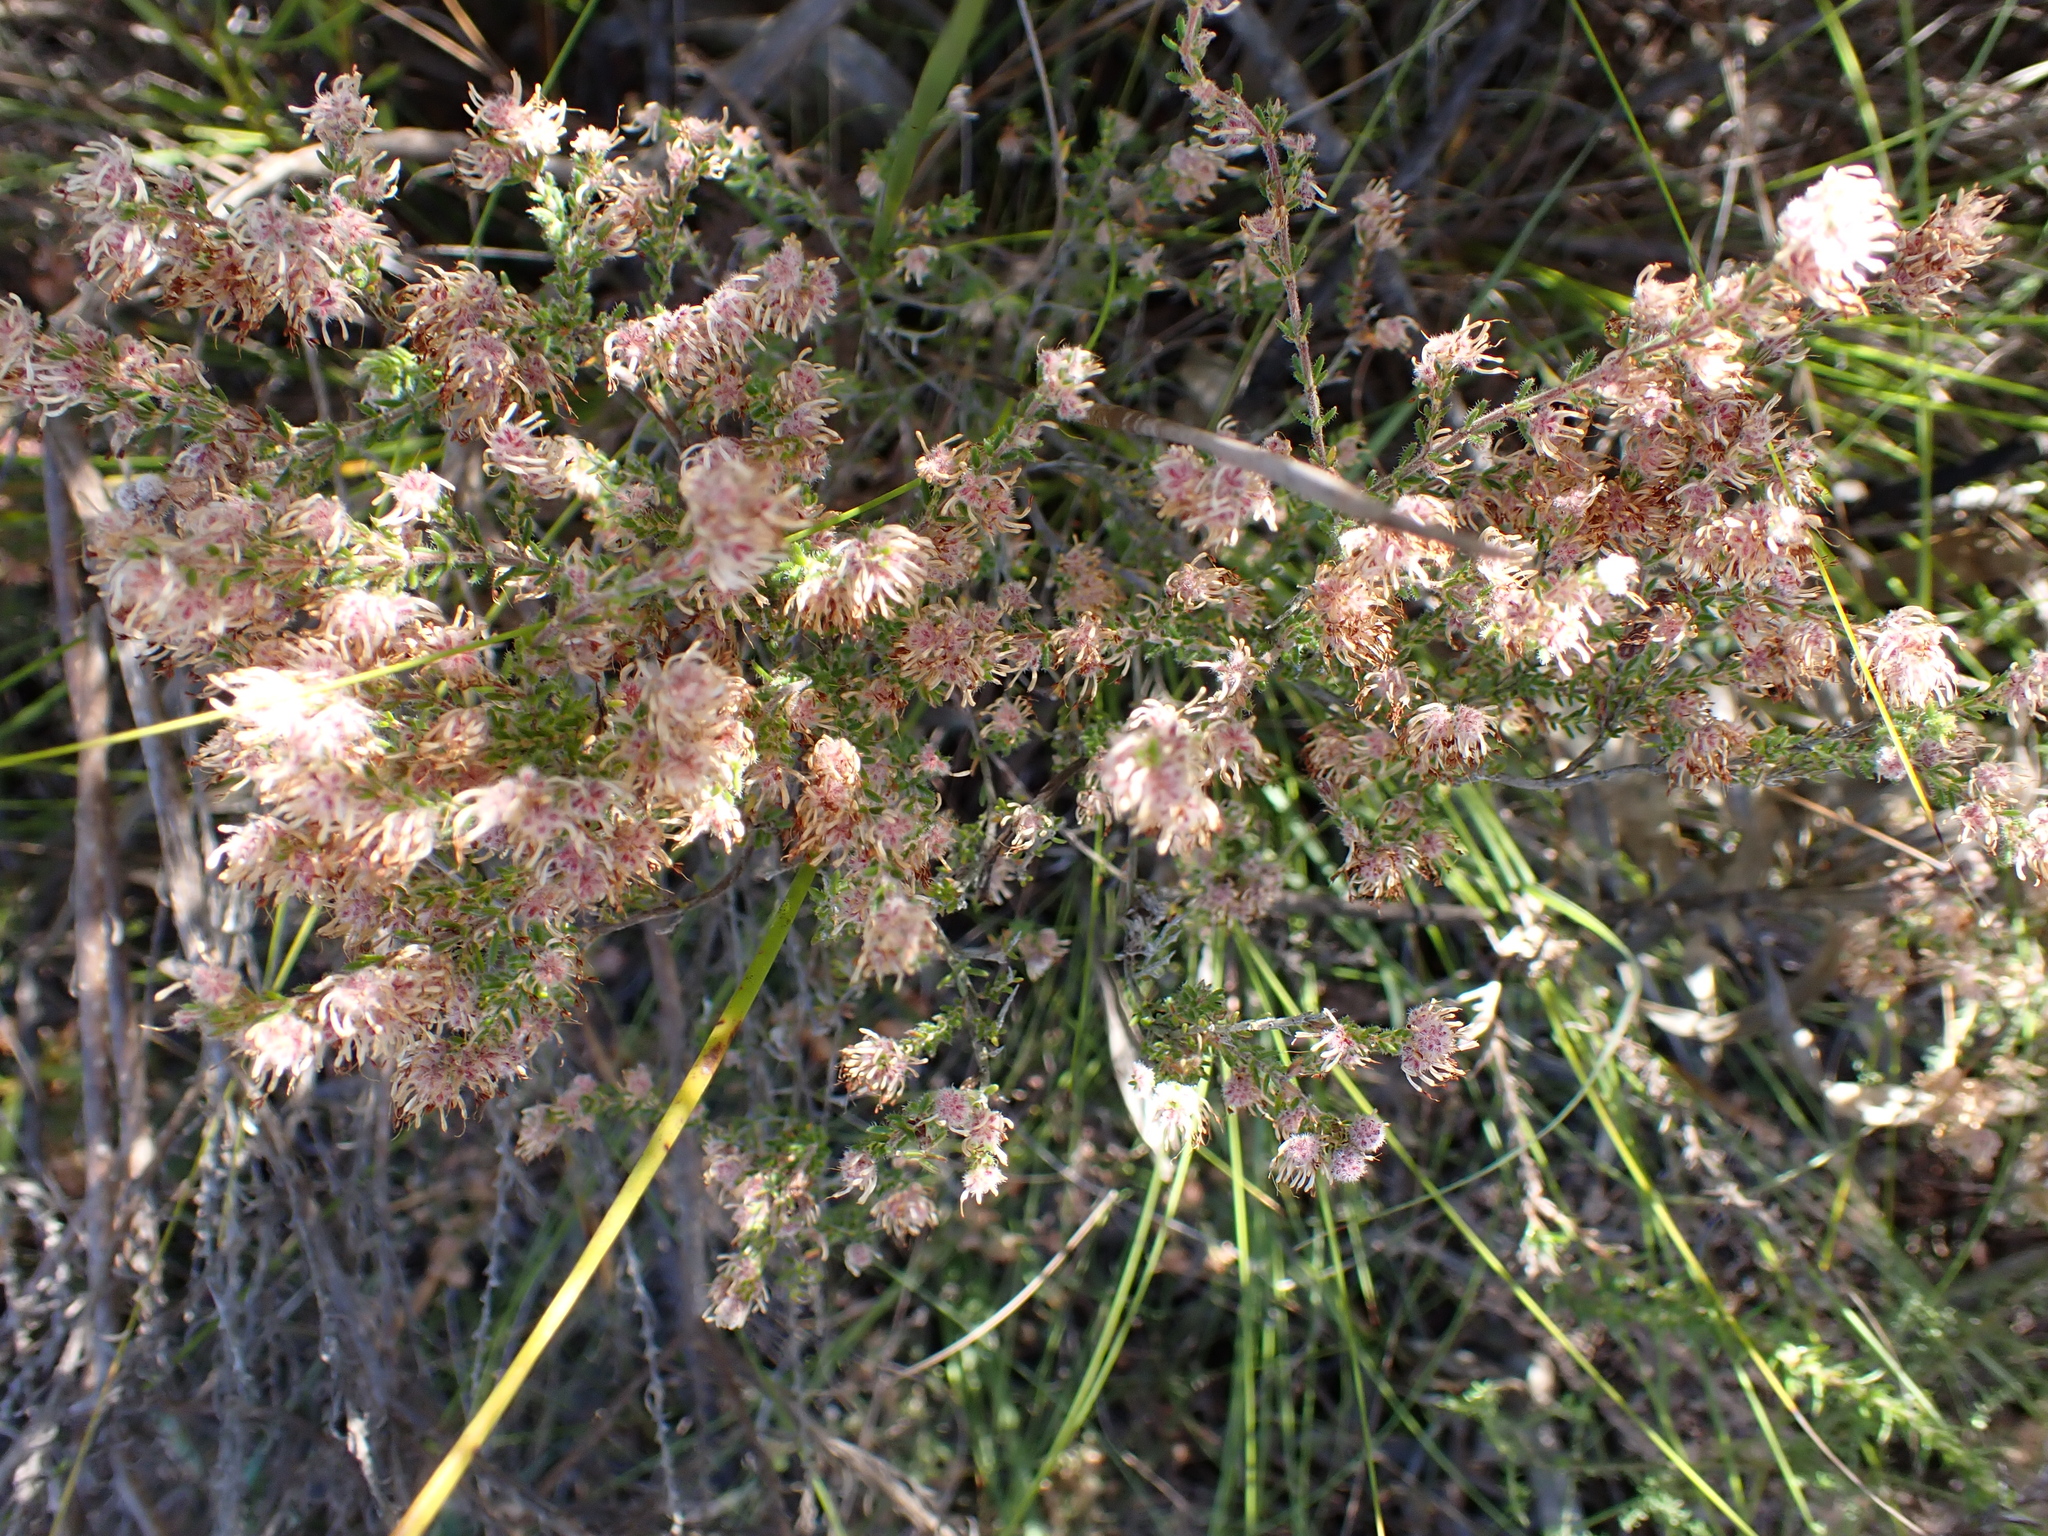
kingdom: Plantae
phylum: Tracheophyta
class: Magnoliopsida
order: Ericales
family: Ericaceae
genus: Erica
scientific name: Erica similis
